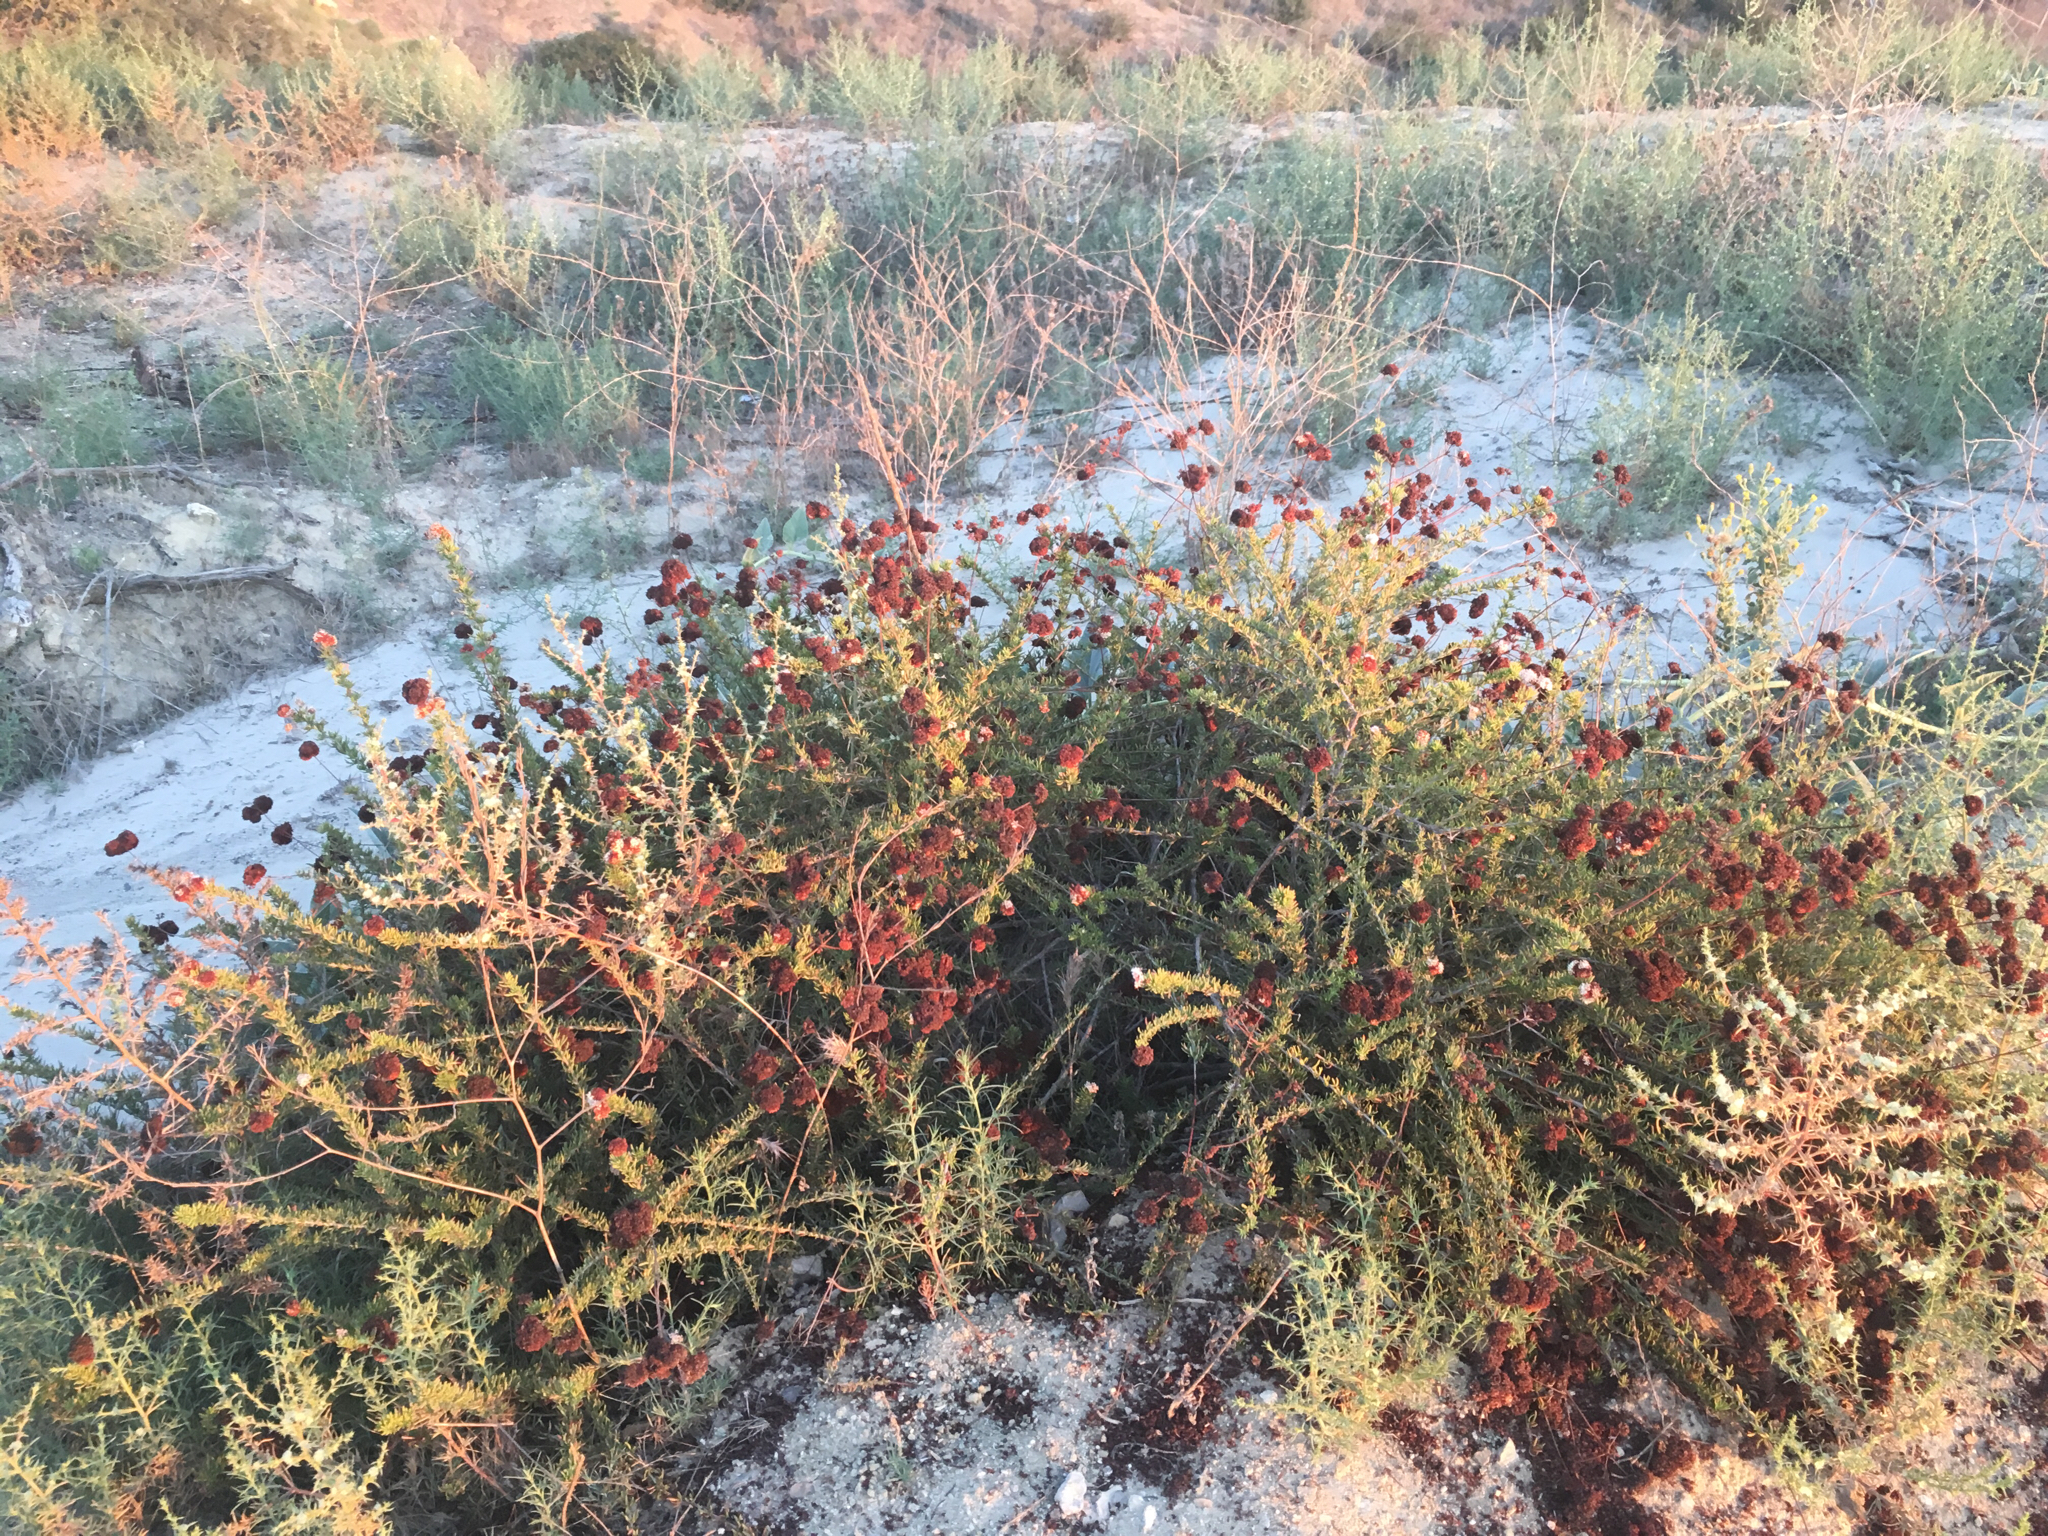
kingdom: Plantae
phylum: Tracheophyta
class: Magnoliopsida
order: Caryophyllales
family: Polygonaceae
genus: Eriogonum
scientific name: Eriogonum fasciculatum
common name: California wild buckwheat
